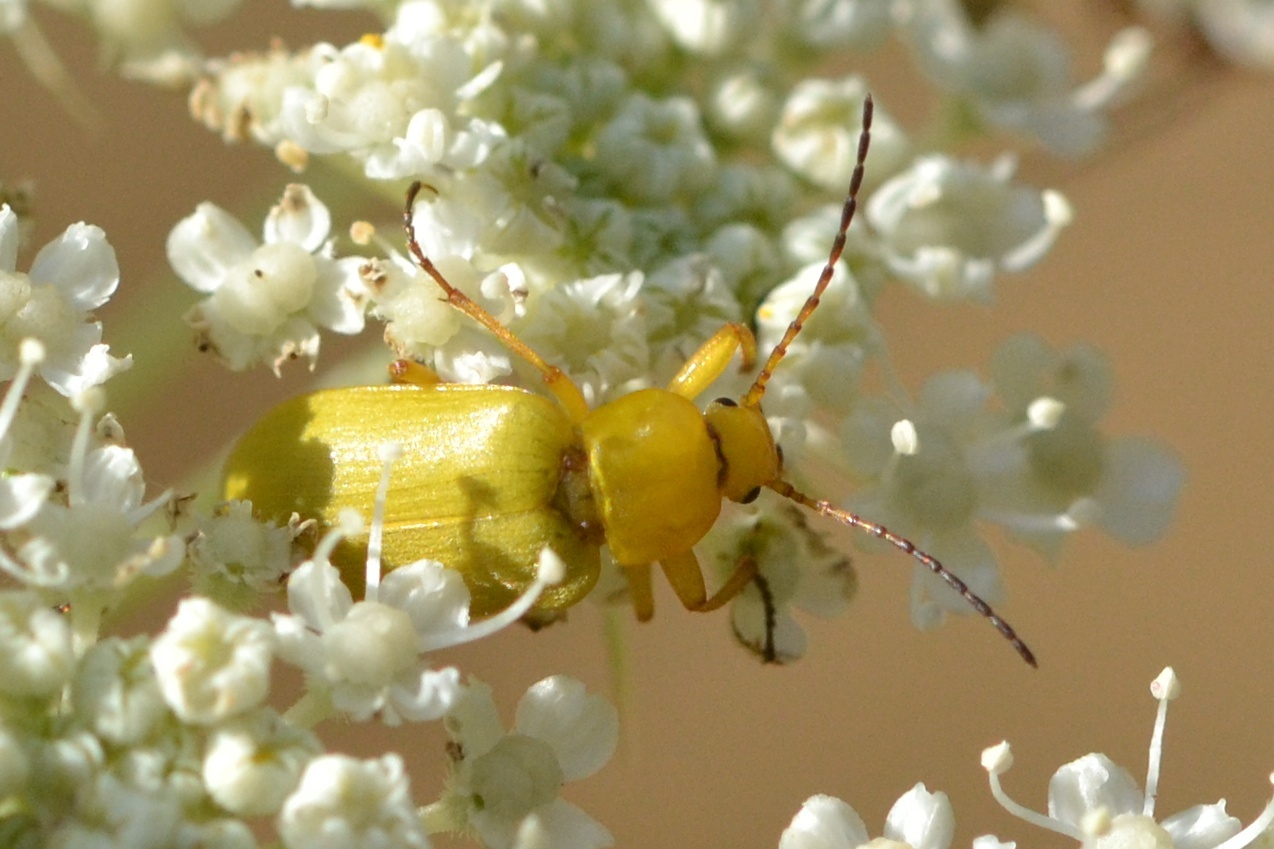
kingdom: Animalia
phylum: Arthropoda
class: Insecta
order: Coleoptera
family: Tenebrionidae
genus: Cteniopus
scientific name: Cteniopus sulphureus
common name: Sulphur beetle
